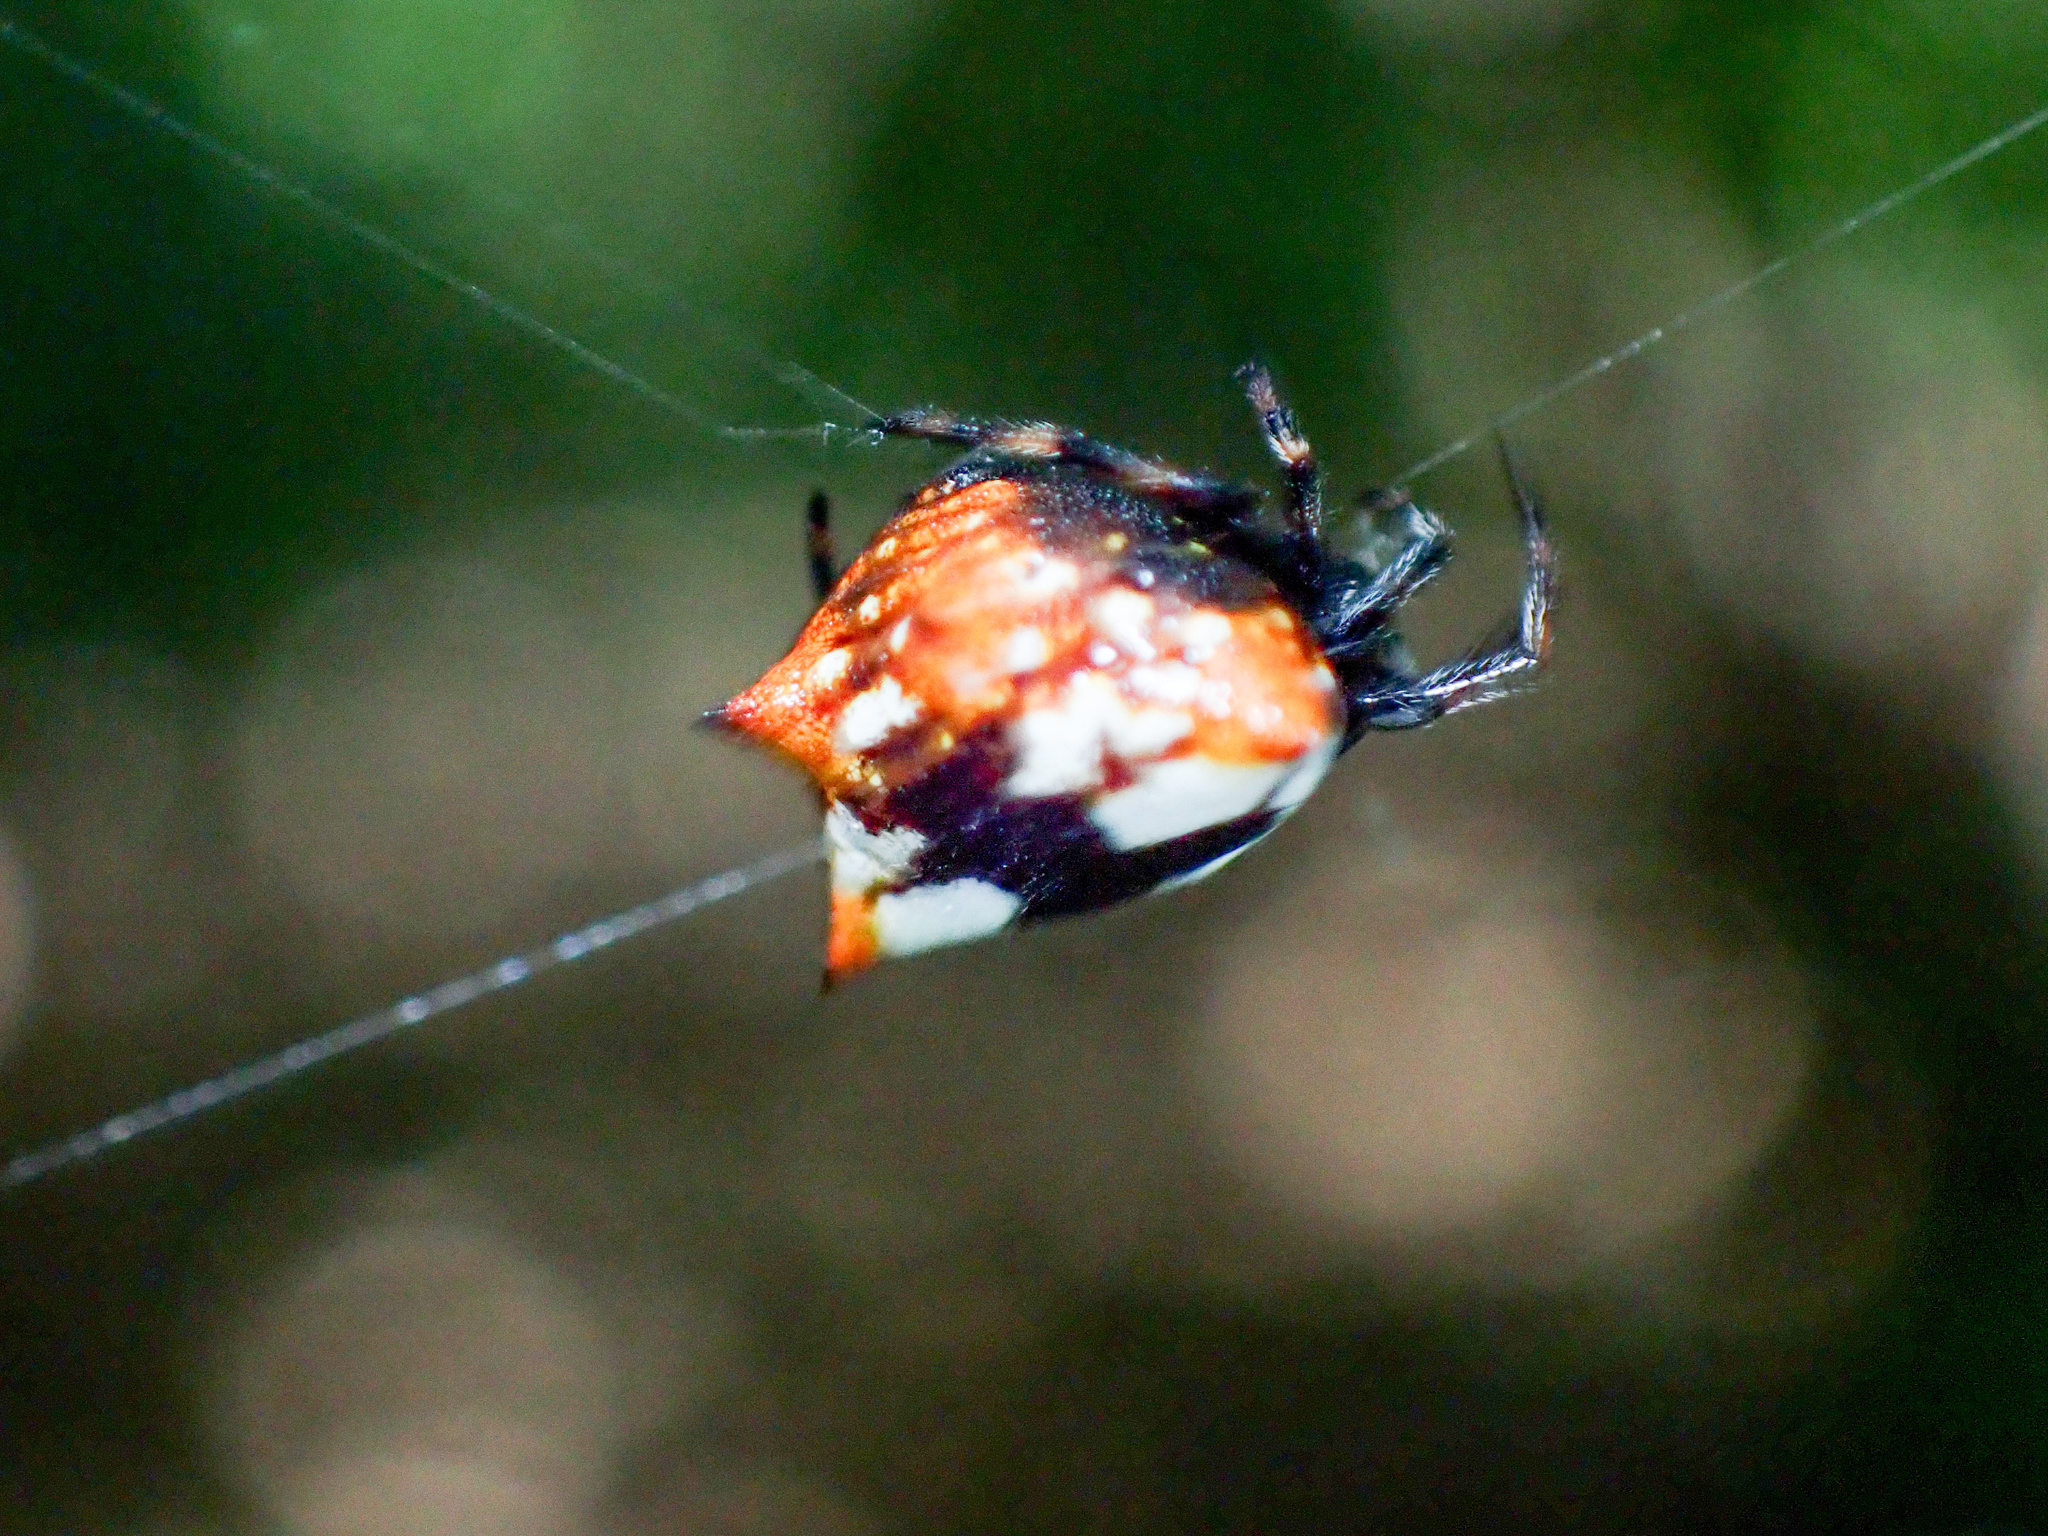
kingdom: Animalia
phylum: Arthropoda
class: Arachnida
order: Araneae
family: Araneidae
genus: Gasteracantha
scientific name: Gasteracantha cancriformis
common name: Orb weavers
